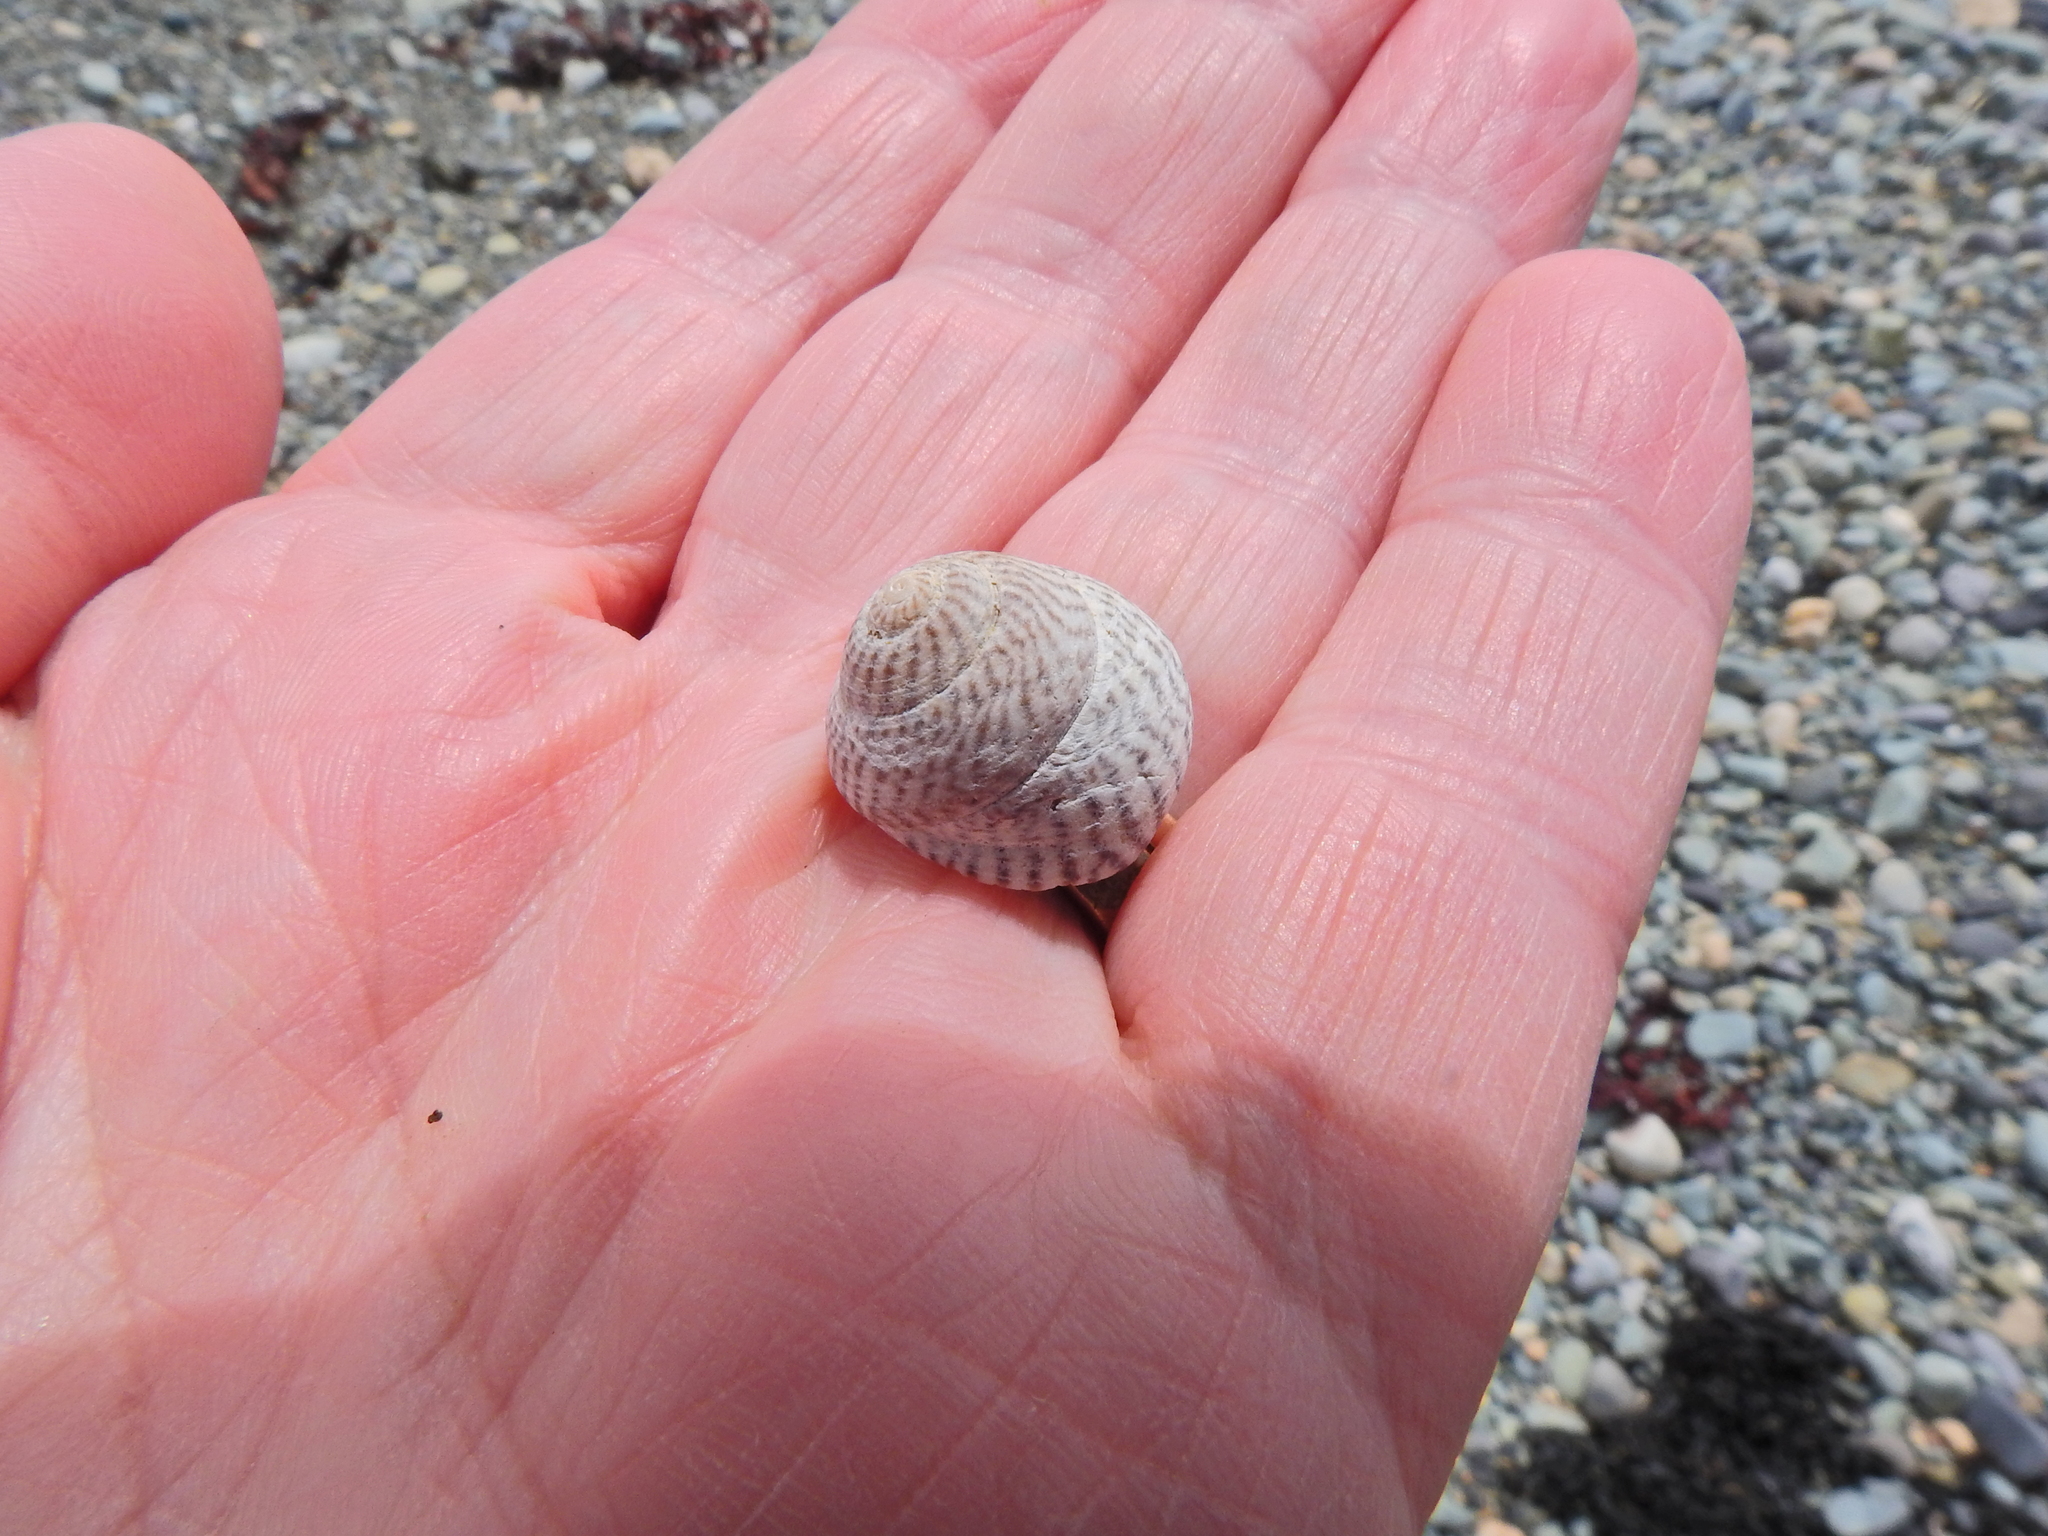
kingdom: Animalia
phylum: Mollusca
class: Gastropoda
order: Trochida
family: Trochidae
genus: Steromphala
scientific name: Steromphala cineraria
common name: Grey top shell
